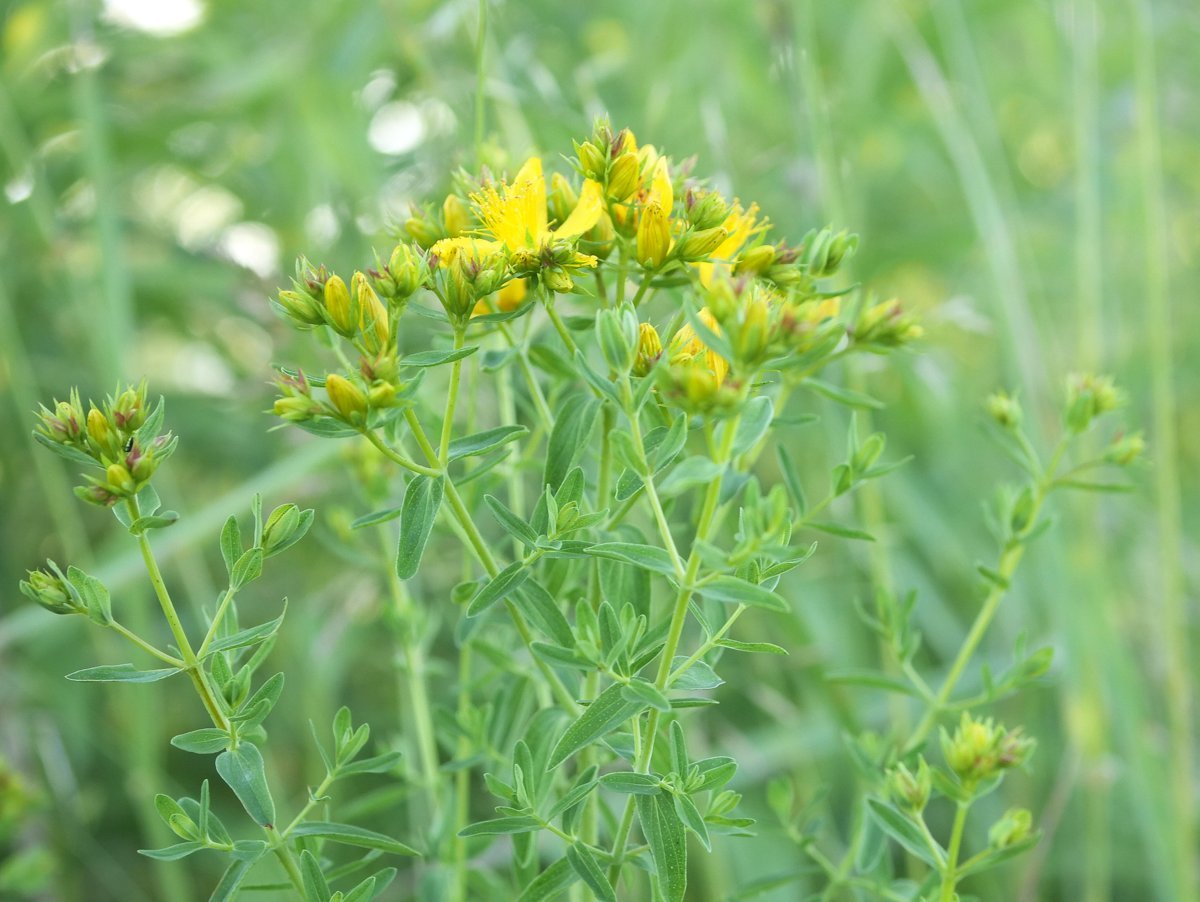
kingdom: Plantae
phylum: Tracheophyta
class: Magnoliopsida
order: Malpighiales
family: Hypericaceae
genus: Hypericum
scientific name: Hypericum perforatum
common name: Common st. johnswort
